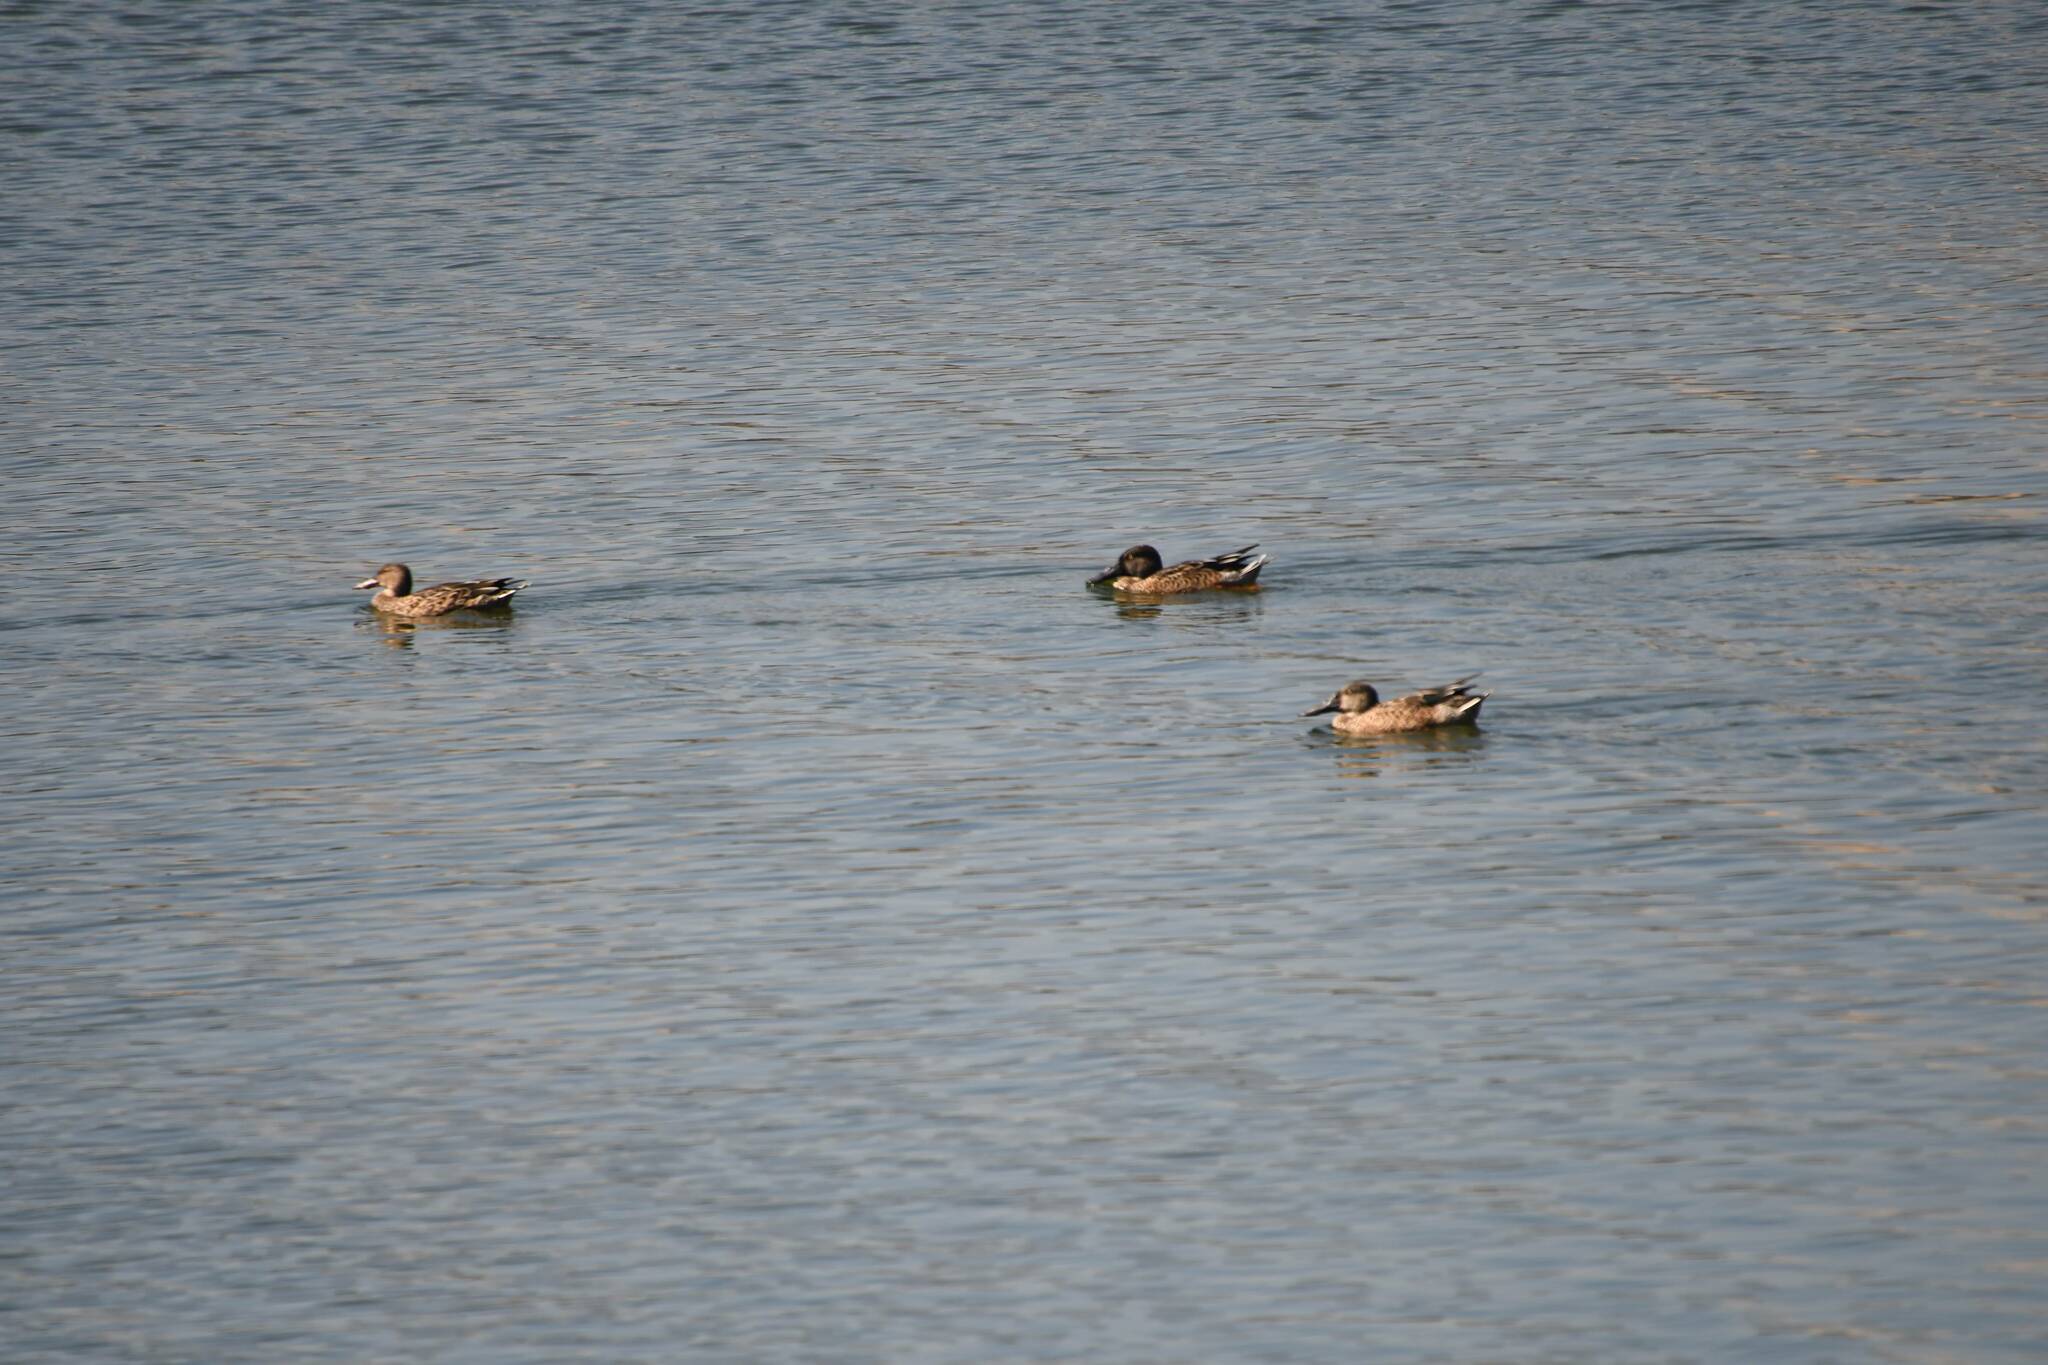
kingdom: Animalia
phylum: Chordata
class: Aves
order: Anseriformes
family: Anatidae
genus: Spatula
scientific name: Spatula clypeata
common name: Northern shoveler
